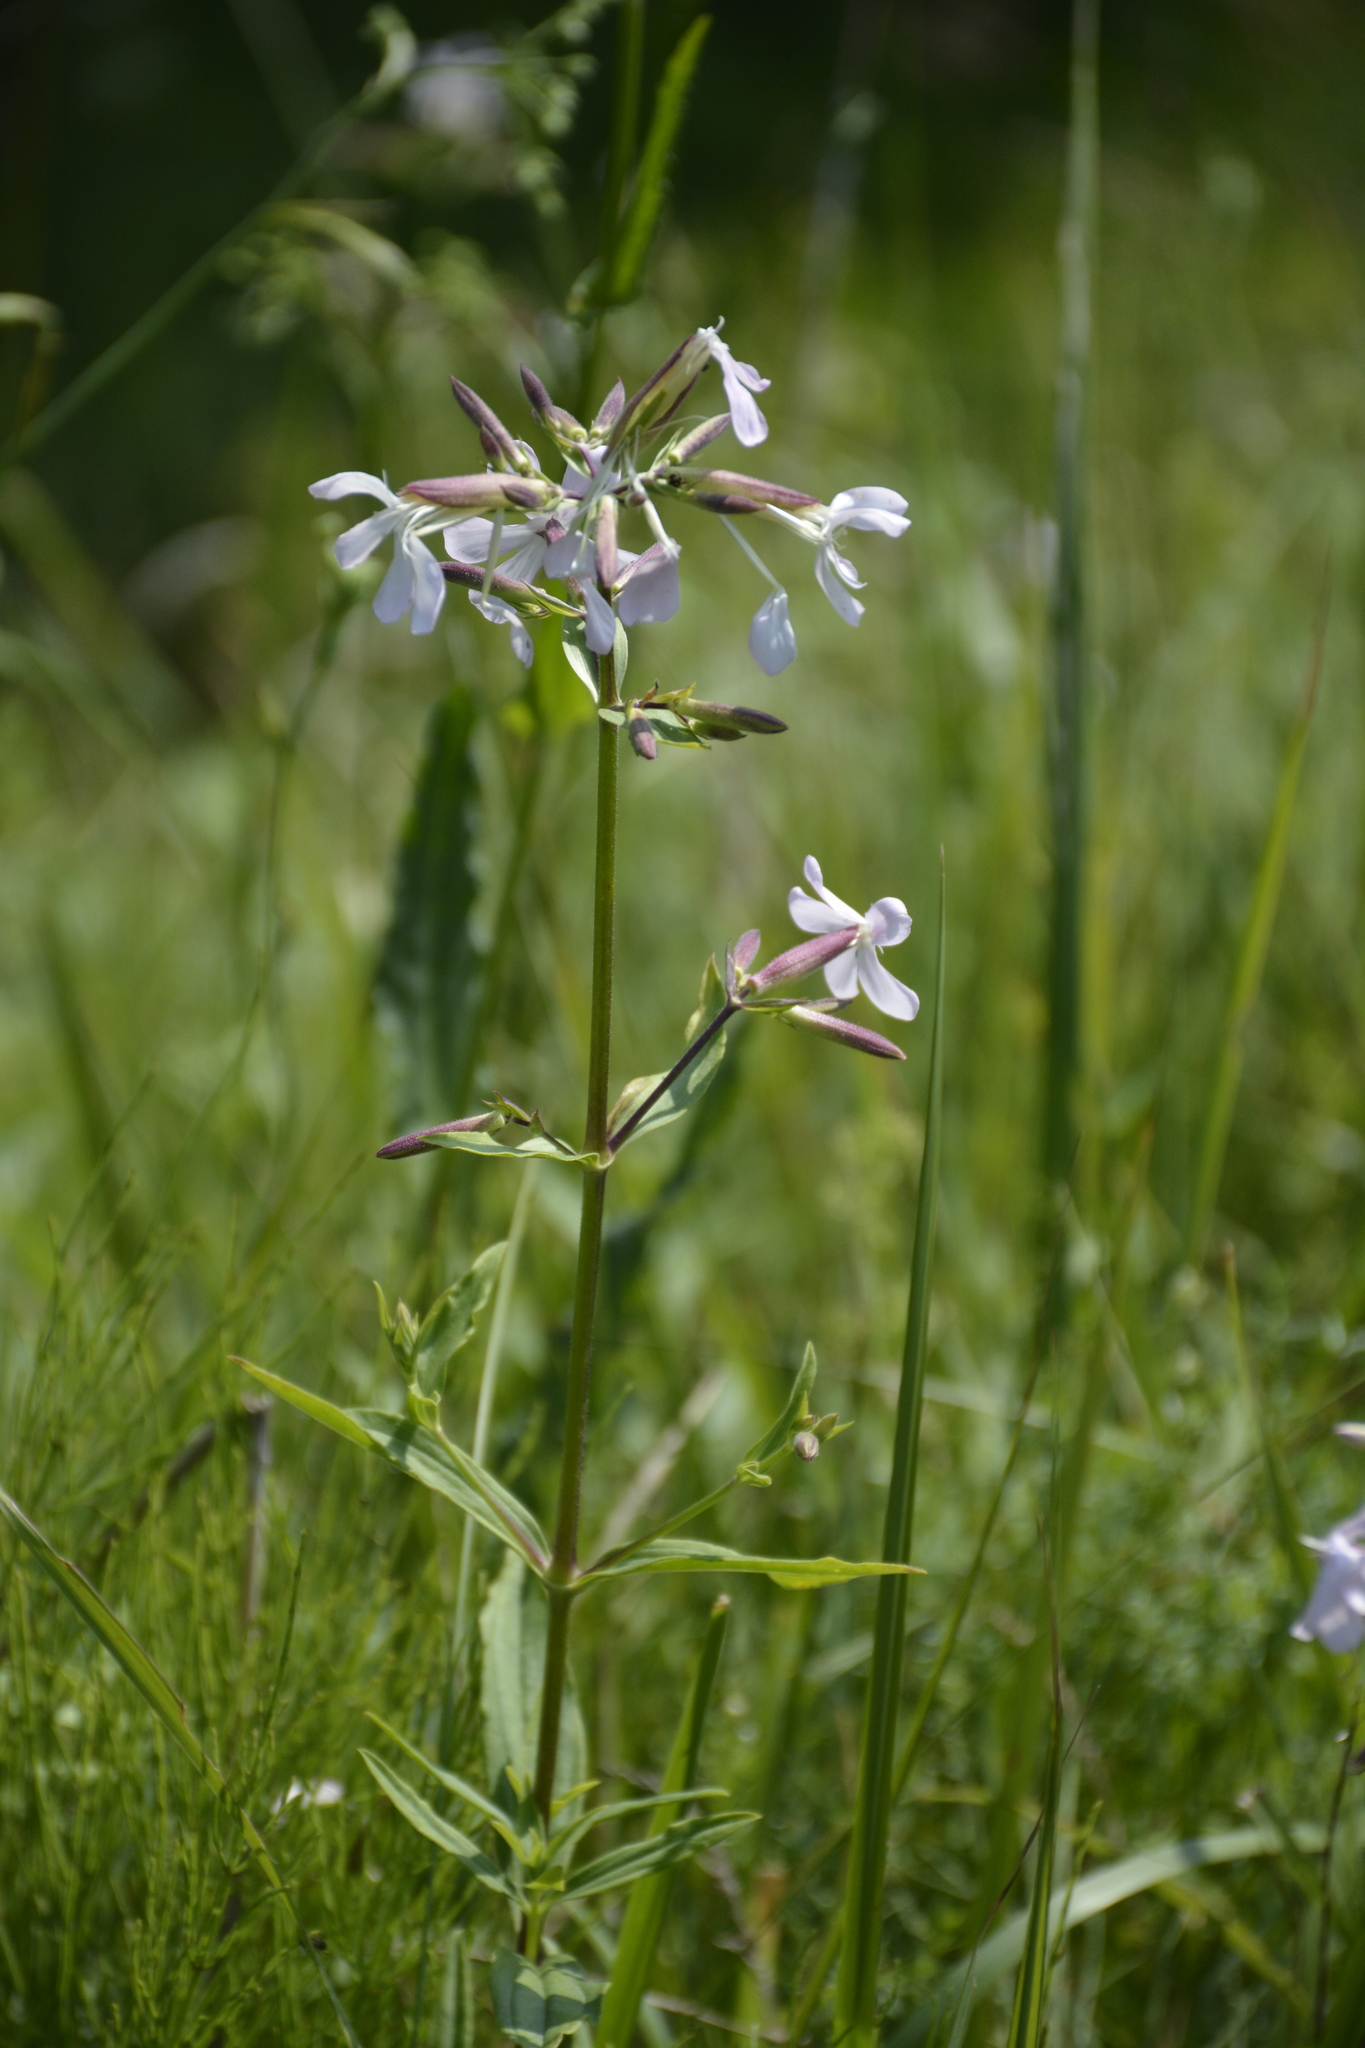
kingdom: Plantae
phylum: Tracheophyta
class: Magnoliopsida
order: Caryophyllales
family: Caryophyllaceae
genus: Saponaria
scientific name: Saponaria officinalis
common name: Soapwort
